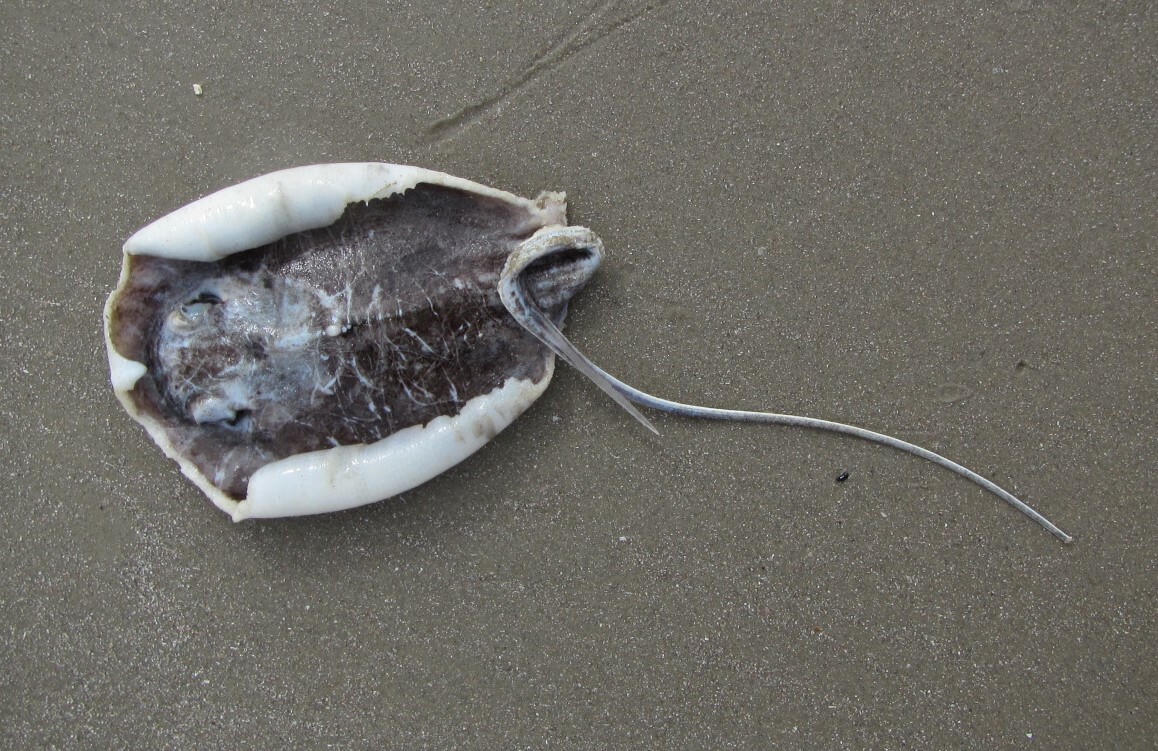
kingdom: Animalia
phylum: Chordata
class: Elasmobranchii
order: Myliobatiformes
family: Dasyatidae
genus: Fontitrygon
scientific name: Fontitrygon margaritella
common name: Pearl stingray
